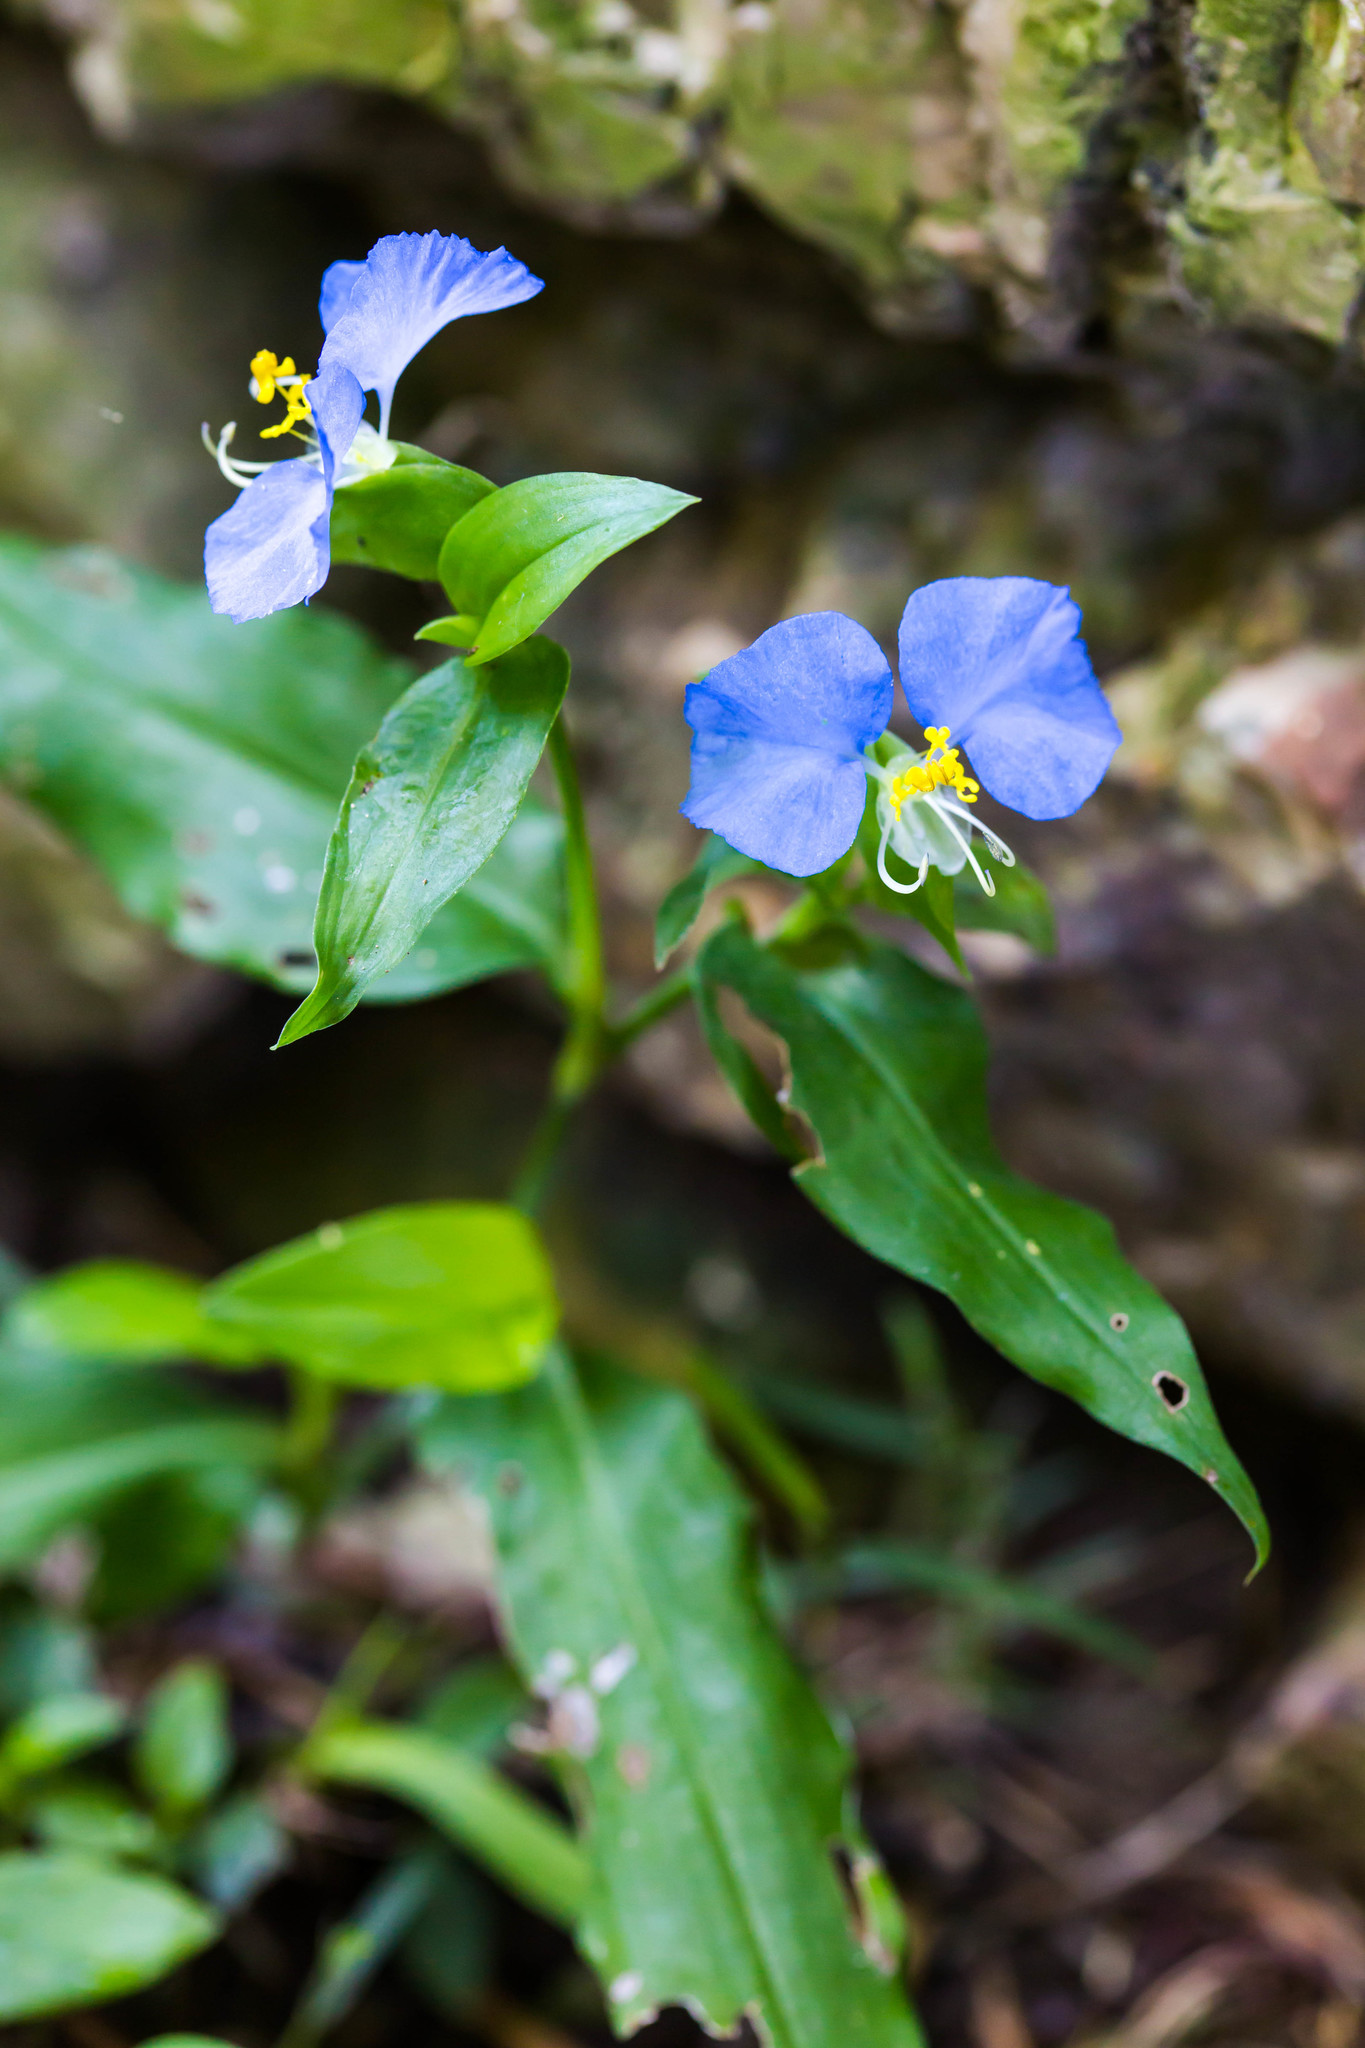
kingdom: Plantae
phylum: Tracheophyta
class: Liliopsida
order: Commelinales
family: Commelinaceae
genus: Commelina
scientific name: Commelina erecta
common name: Blousel blommetjie
